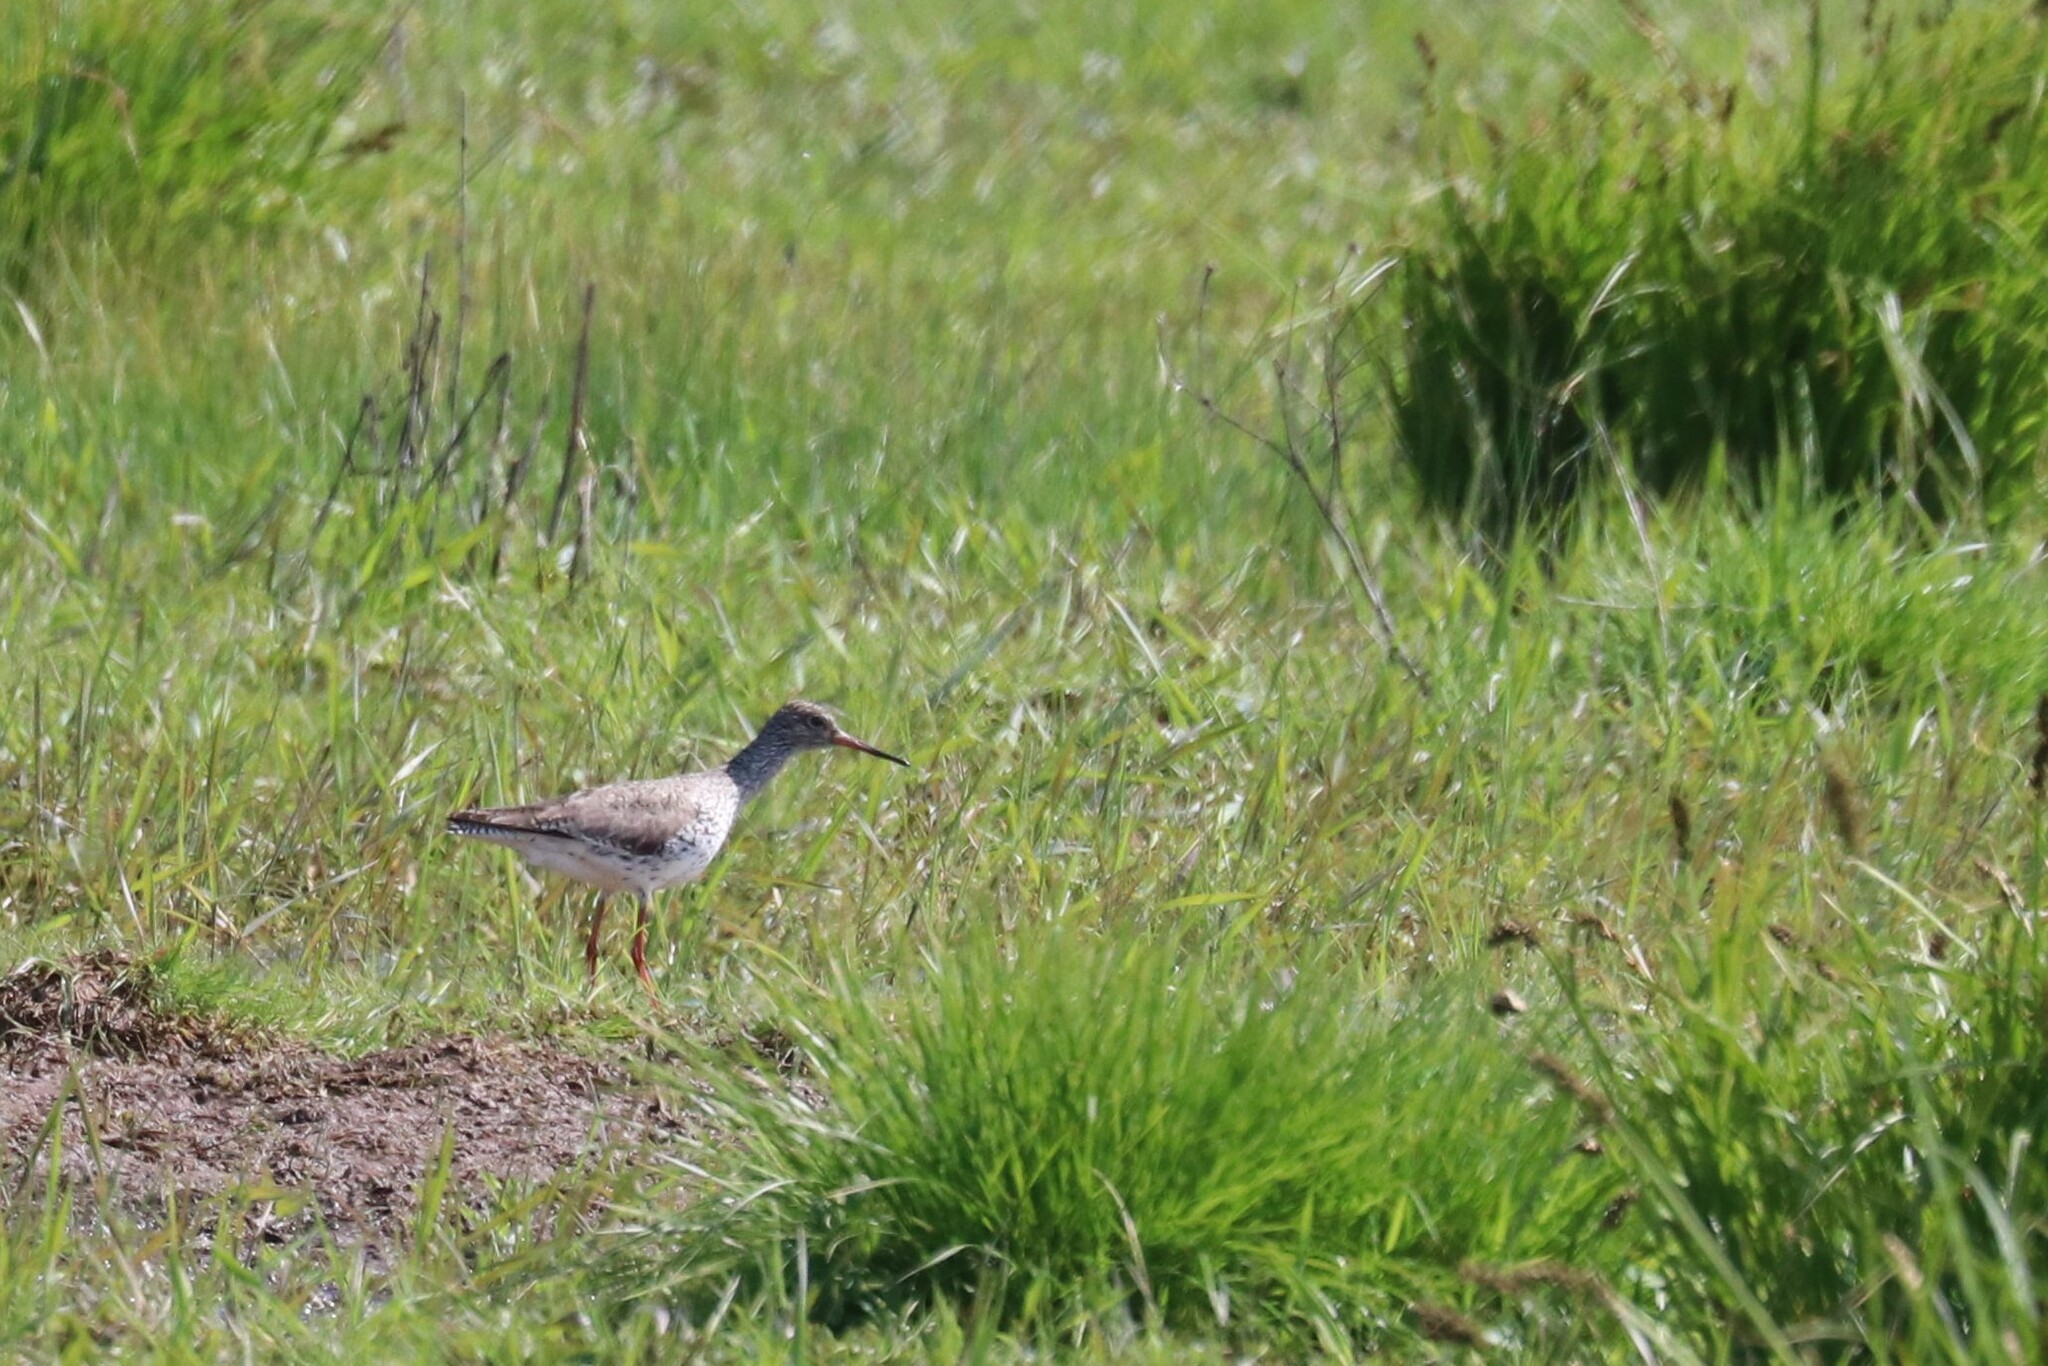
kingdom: Animalia
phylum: Chordata
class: Aves
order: Charadriiformes
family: Scolopacidae
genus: Tringa
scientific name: Tringa totanus
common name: Common redshank
